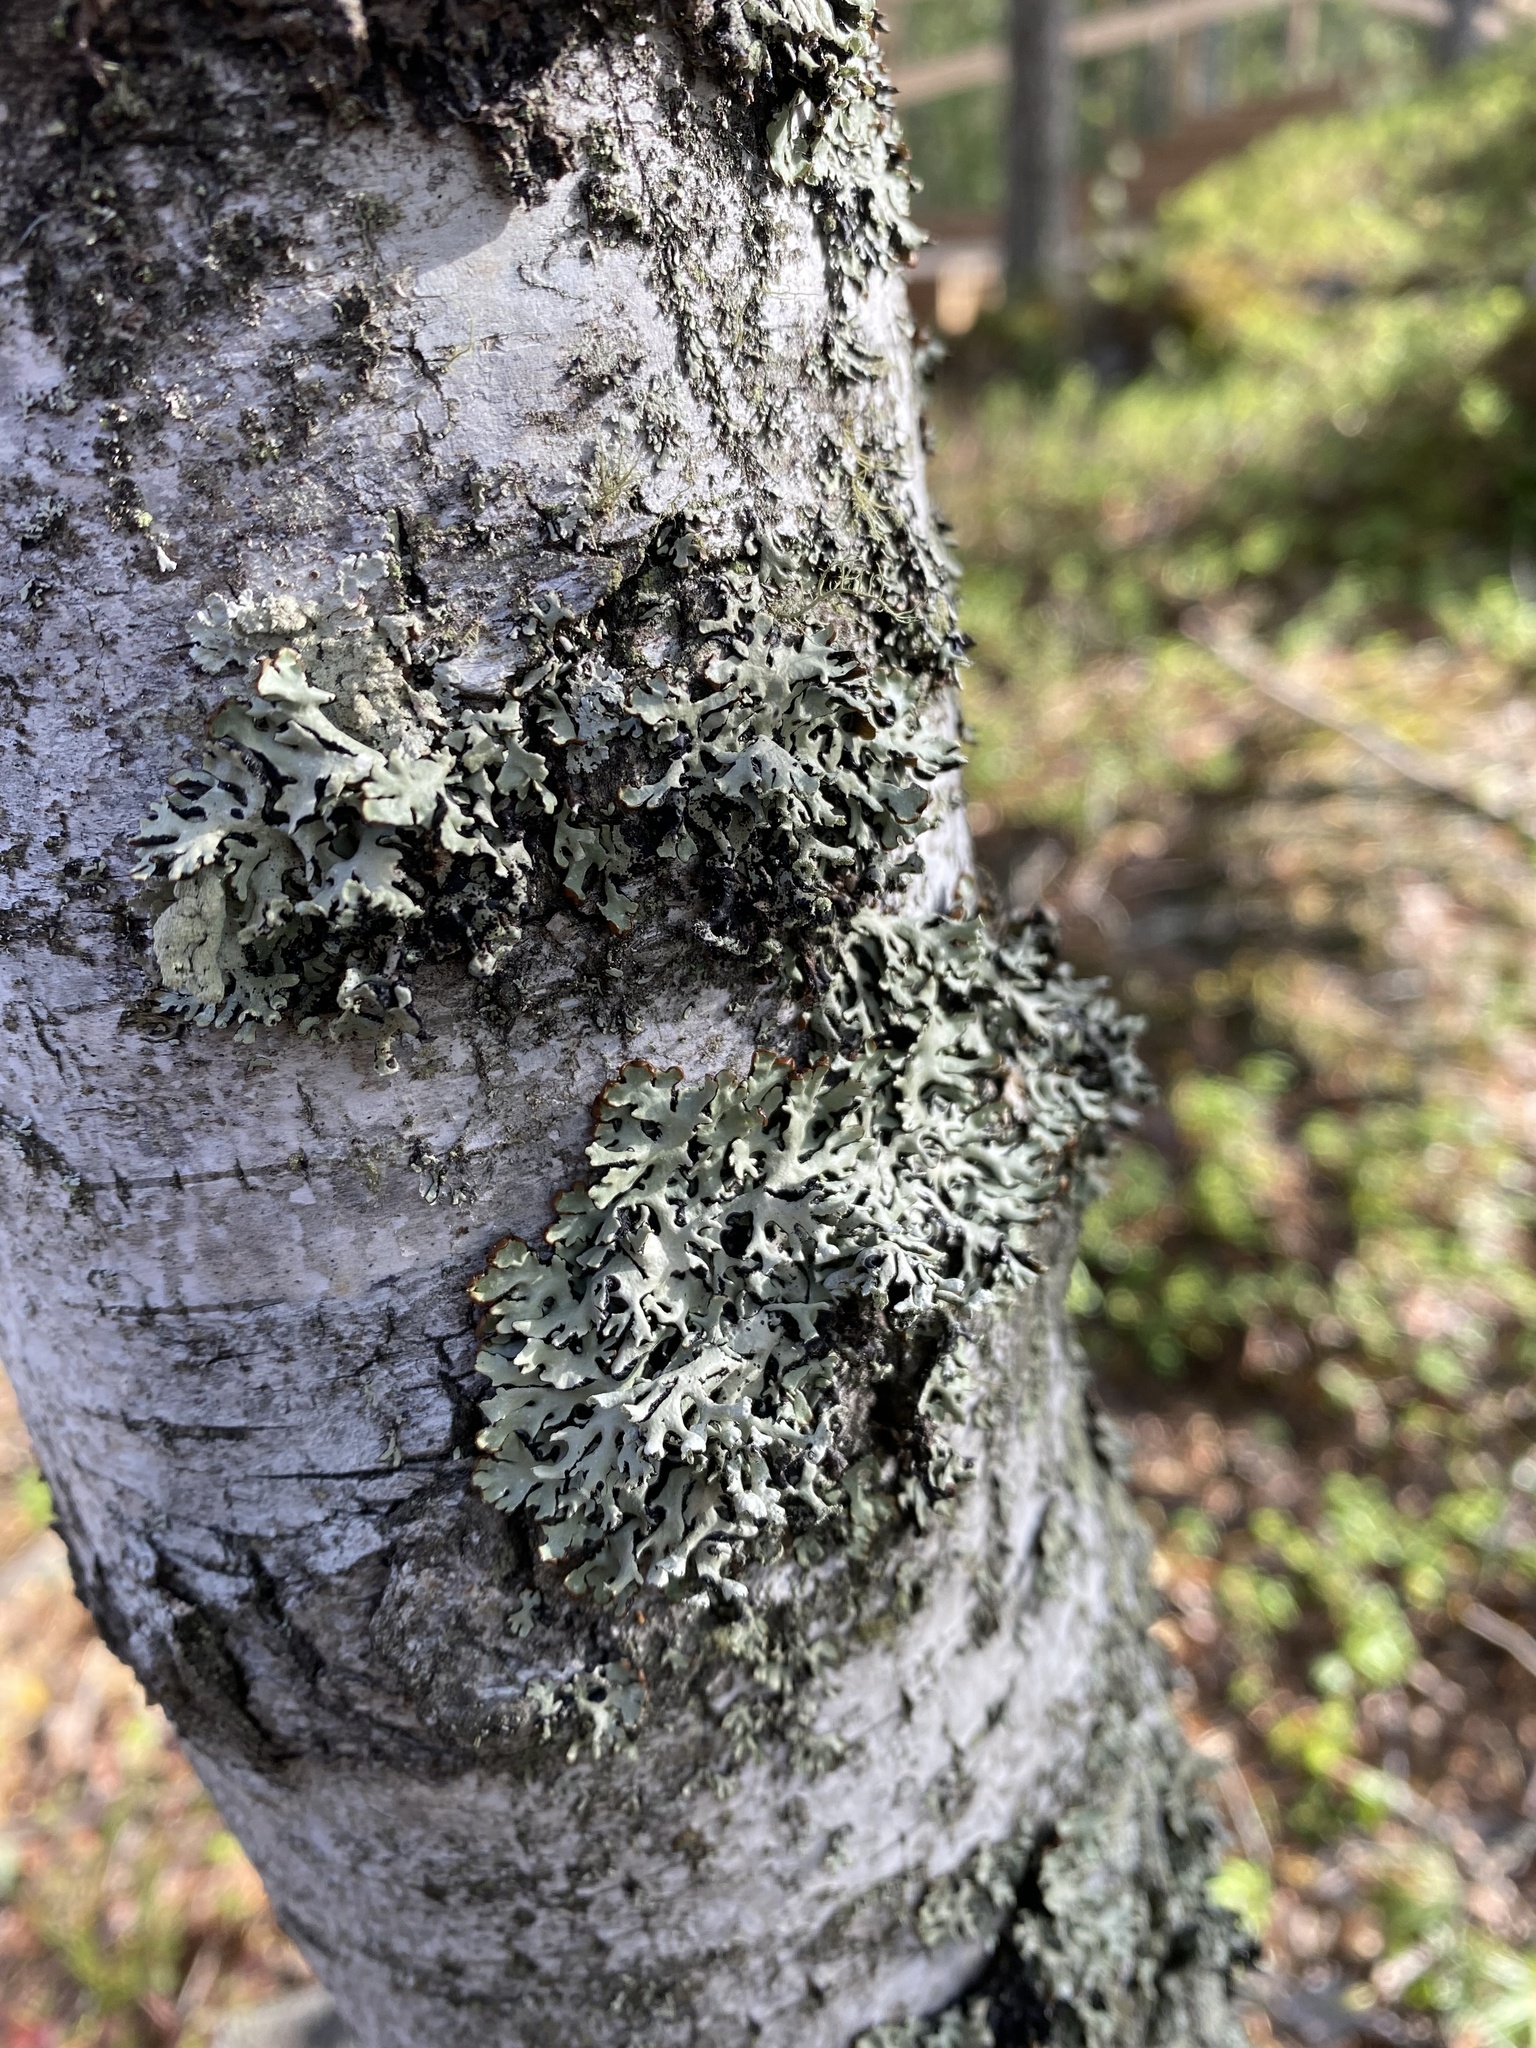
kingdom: Fungi
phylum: Ascomycota
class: Lecanoromycetes
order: Lecanorales
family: Parmeliaceae
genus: Hypogymnia
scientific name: Hypogymnia physodes
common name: Dark crottle
